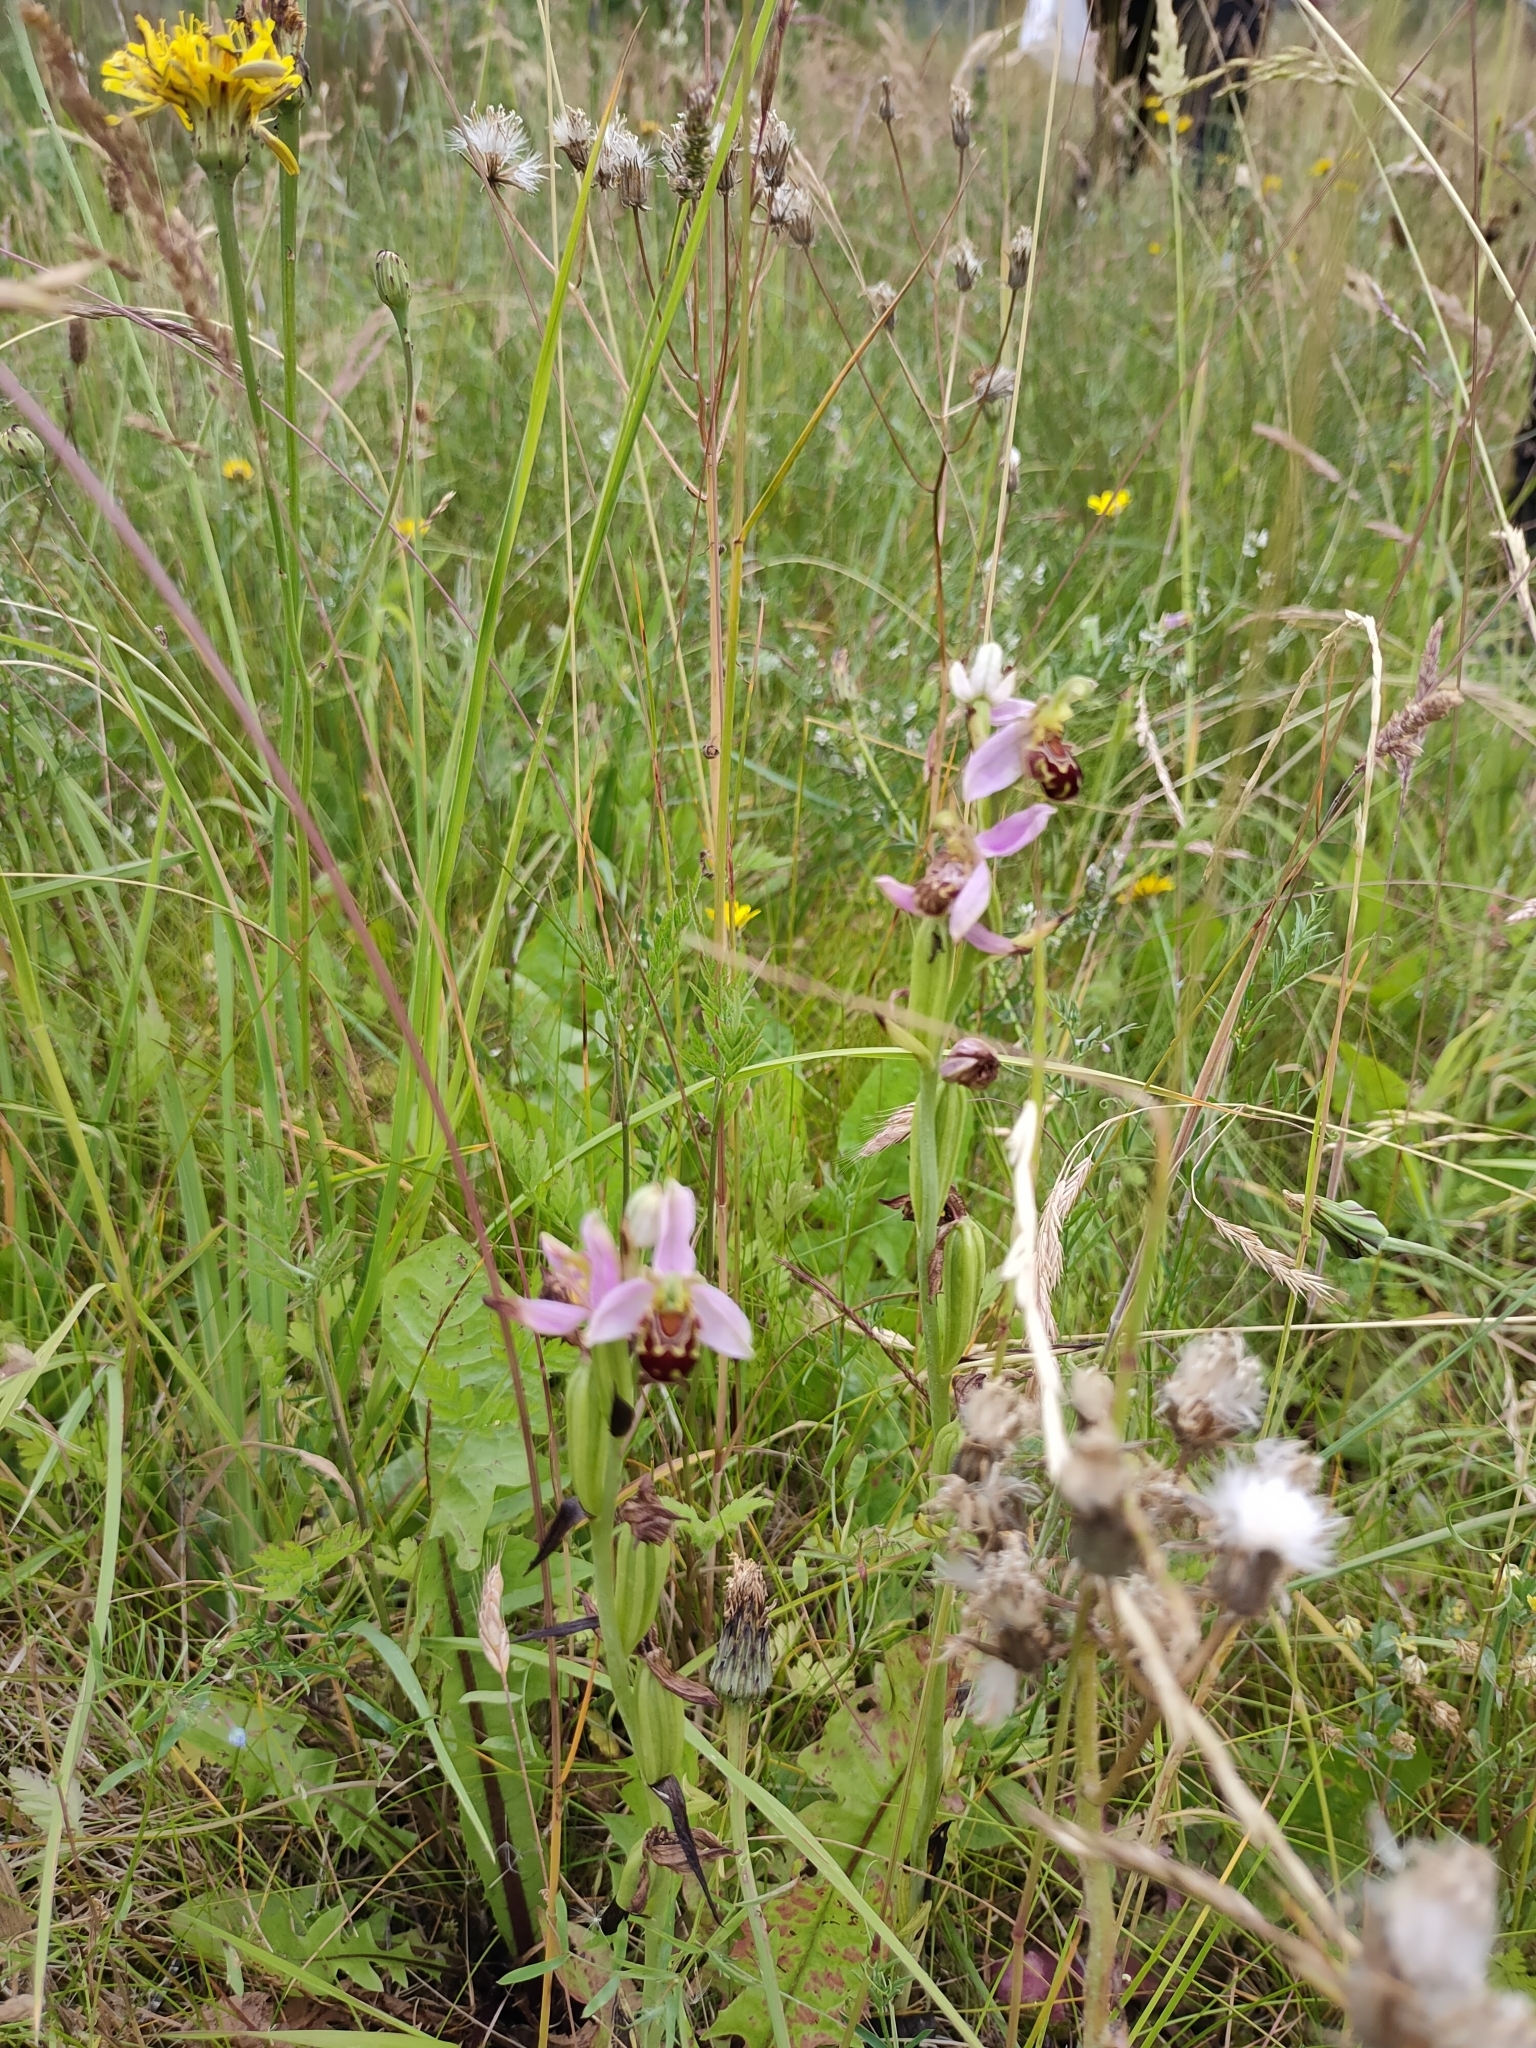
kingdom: Plantae
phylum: Tracheophyta
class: Liliopsida
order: Asparagales
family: Orchidaceae
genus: Ophrys
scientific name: Ophrys apifera
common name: Bee orchid
